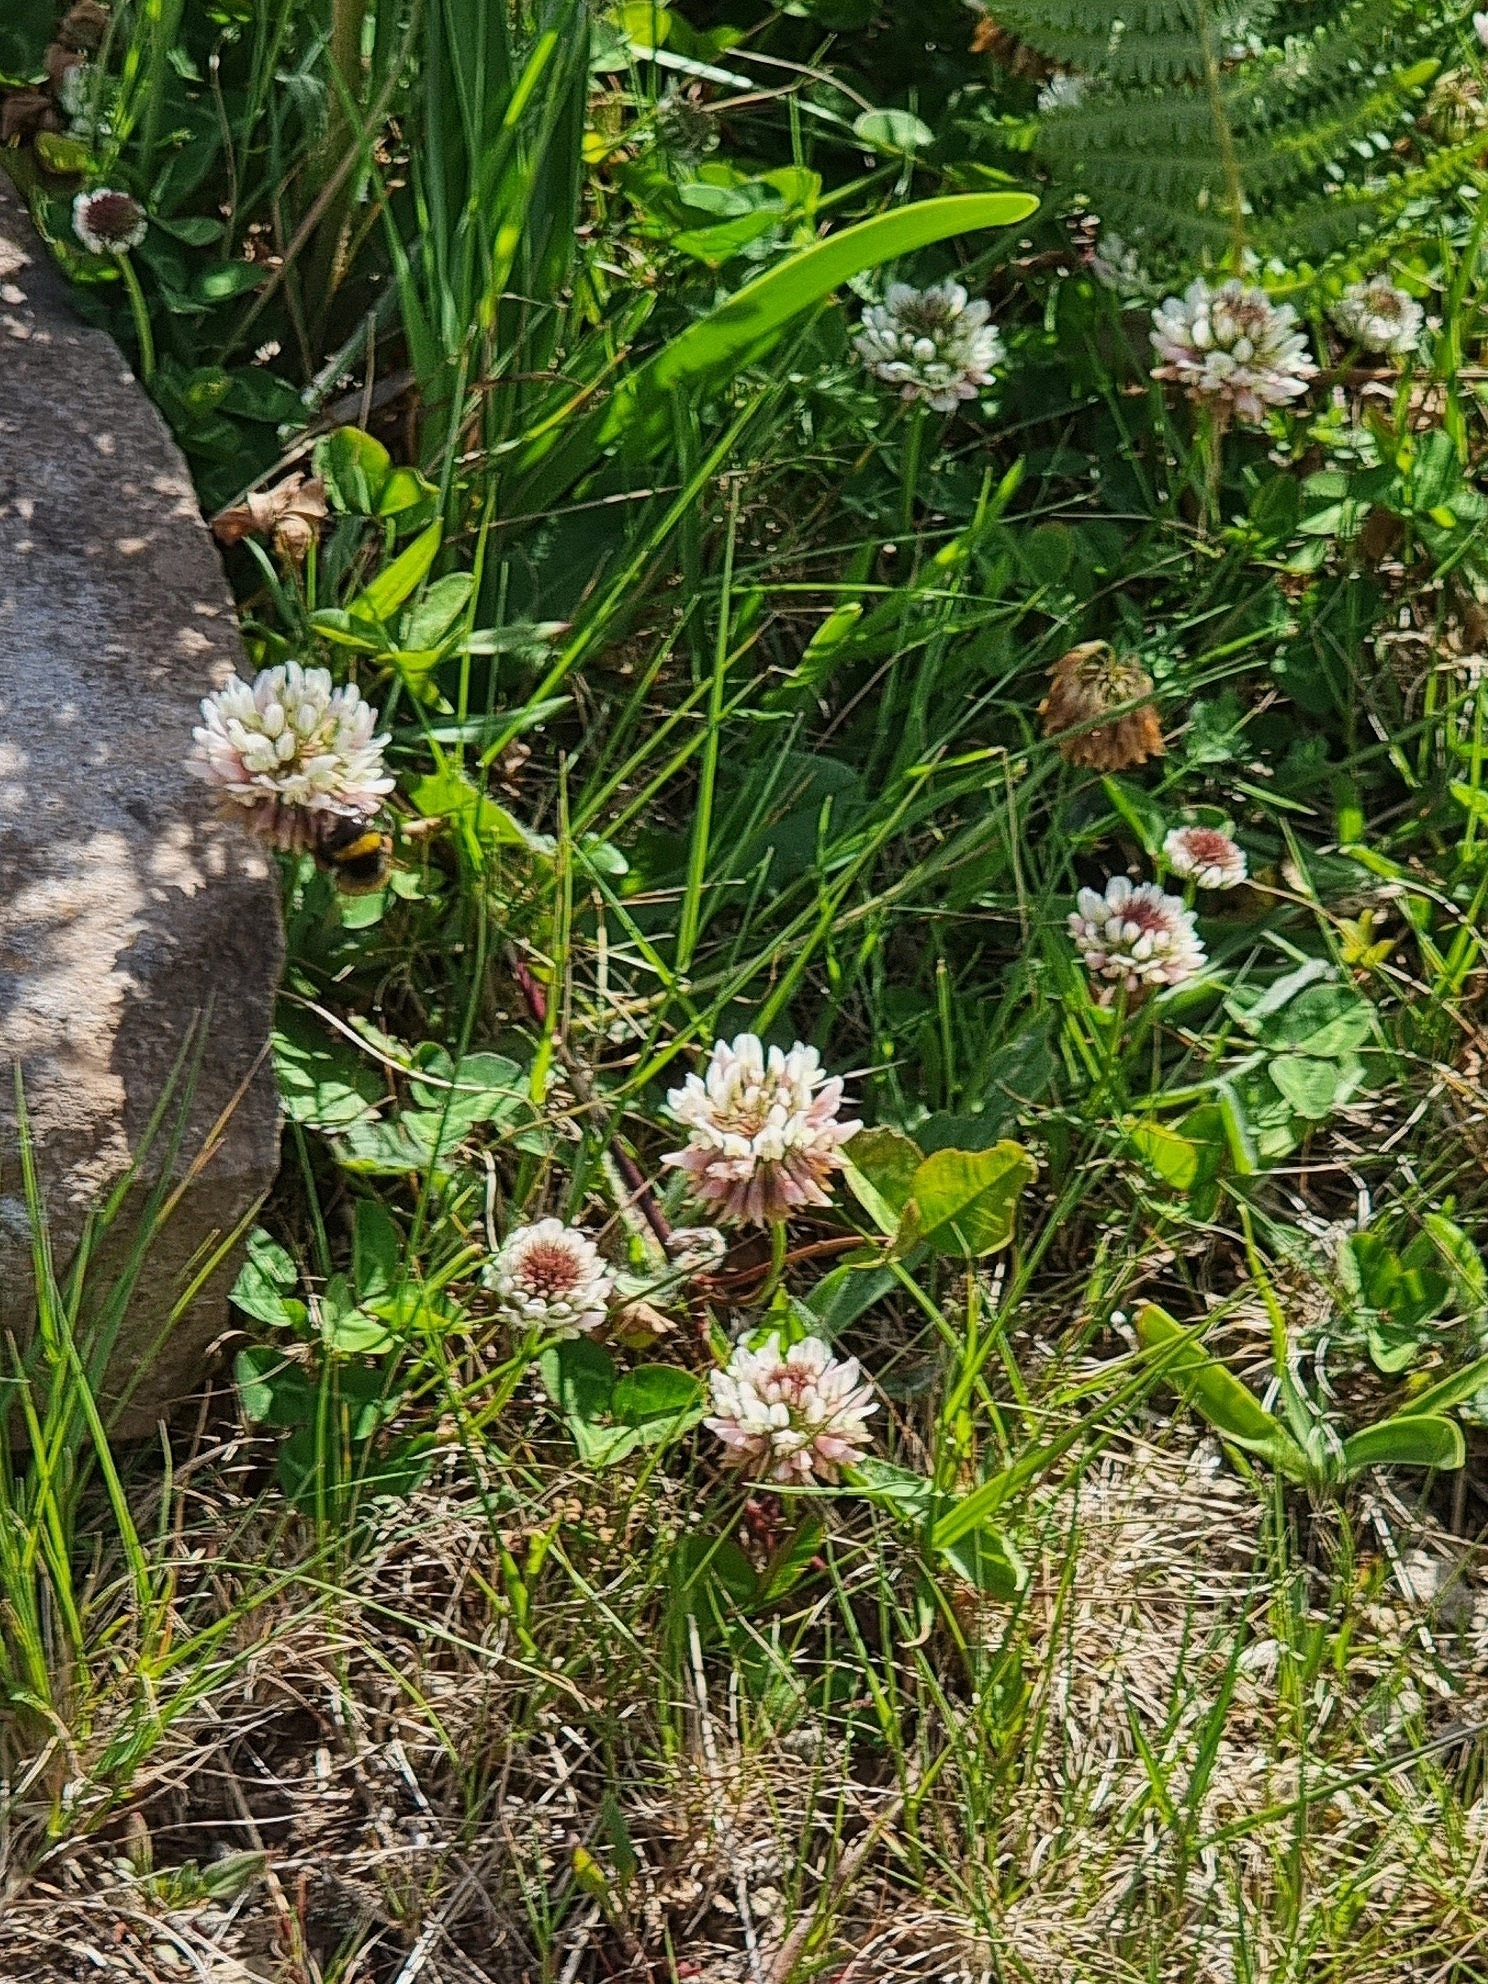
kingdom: Plantae
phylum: Tracheophyta
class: Magnoliopsida
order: Fabales
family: Fabaceae
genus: Trifolium
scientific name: Trifolium repens
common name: White clover
